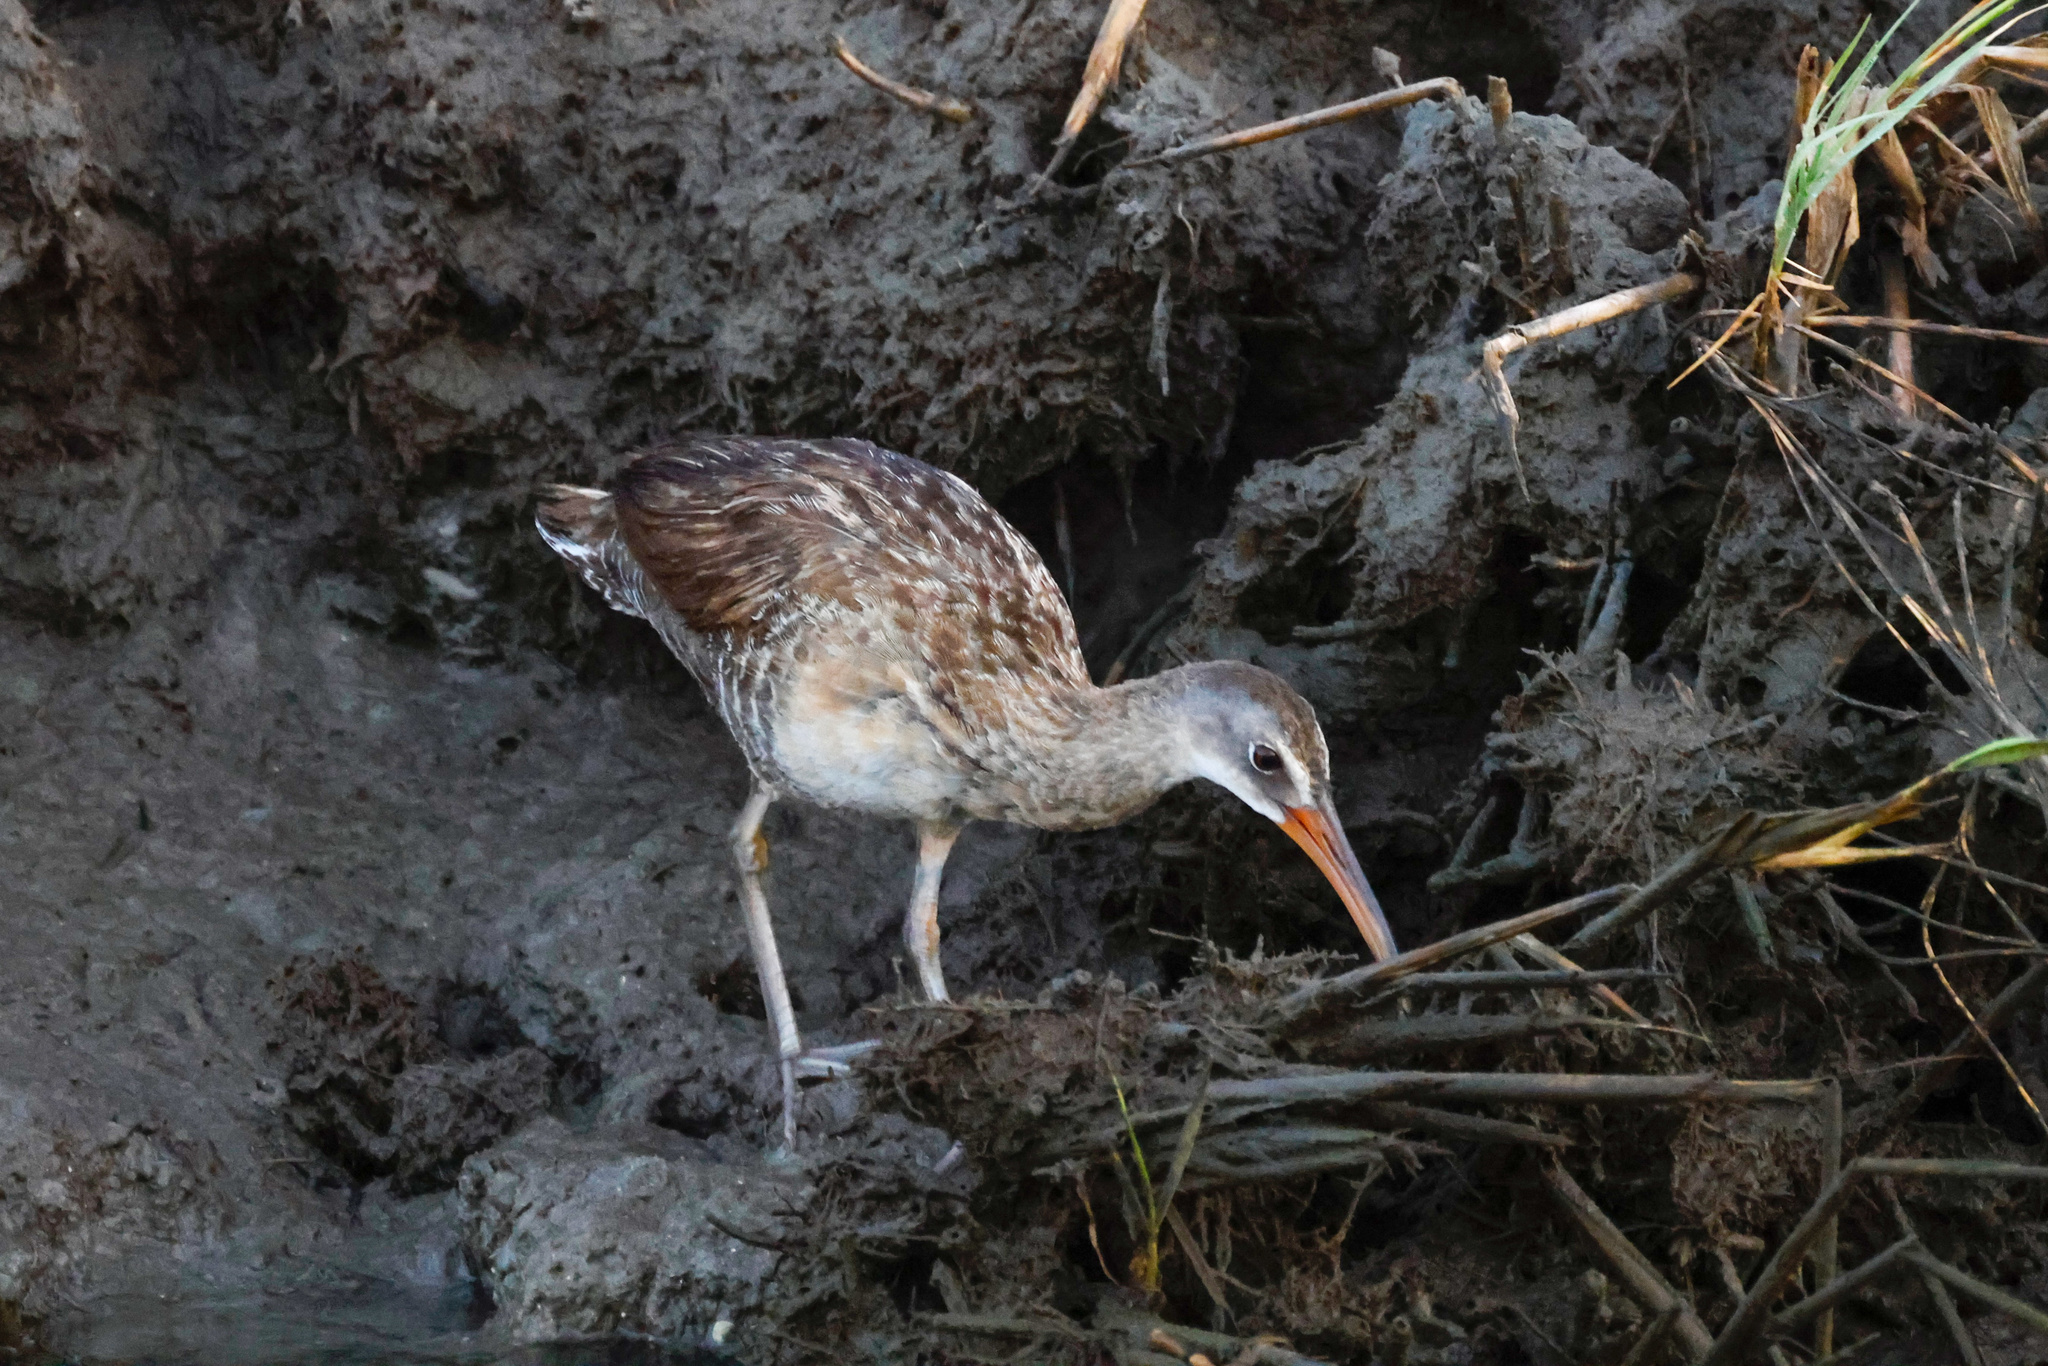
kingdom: Animalia
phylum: Chordata
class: Aves
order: Gruiformes
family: Rallidae
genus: Rallus
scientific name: Rallus crepitans
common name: Clapper rail
